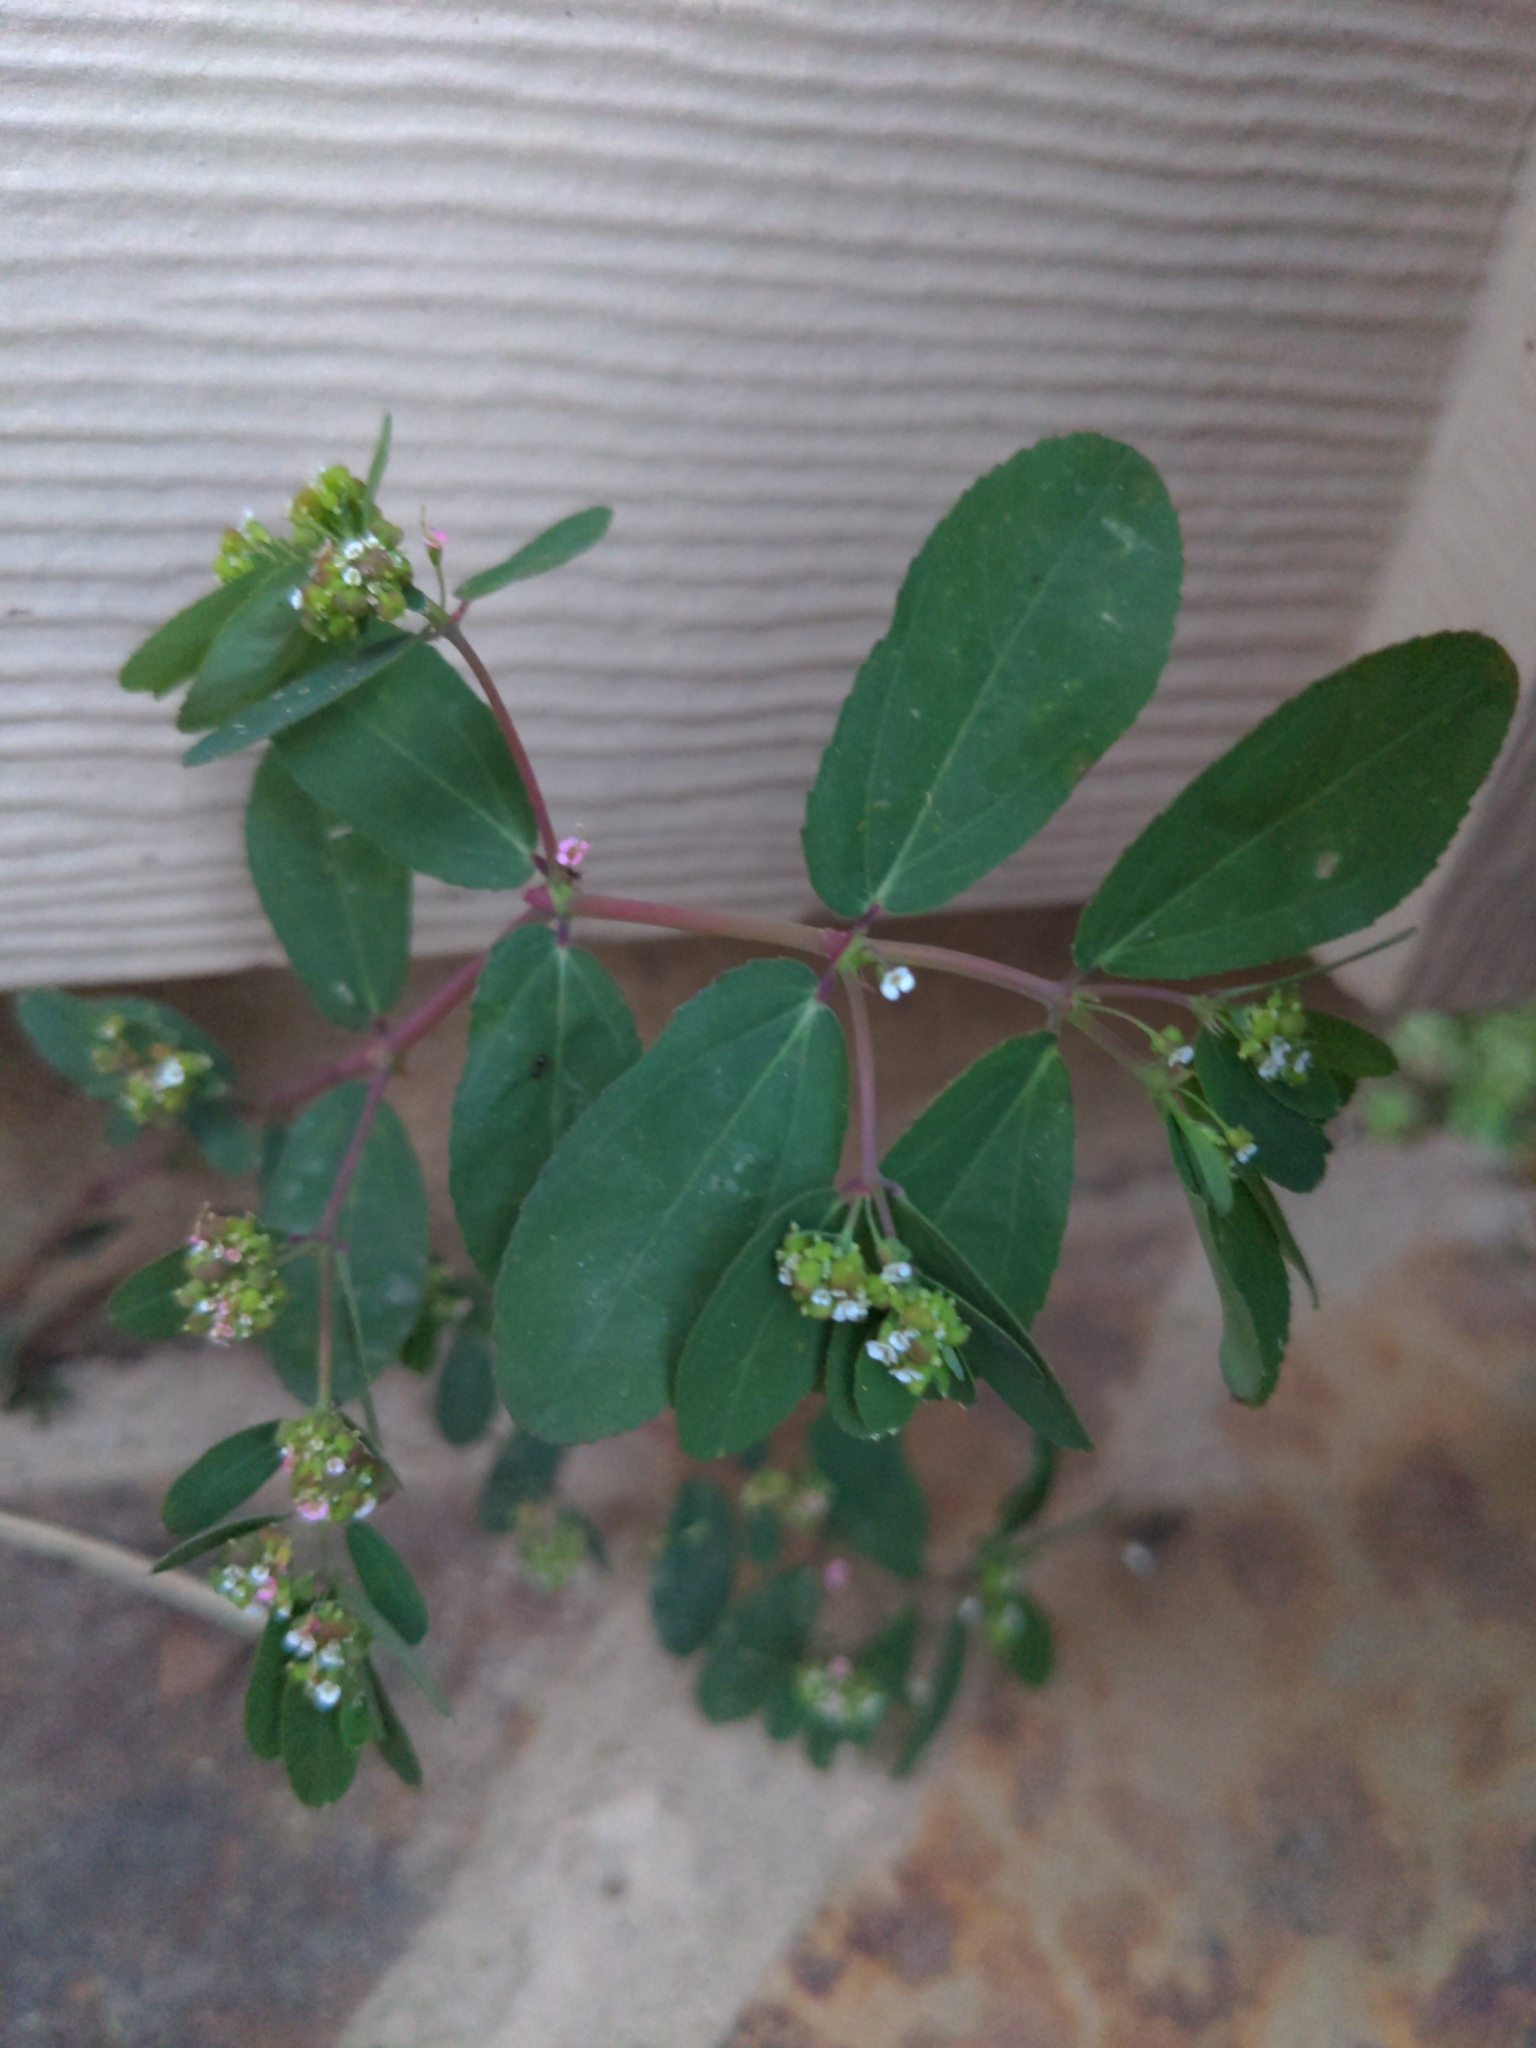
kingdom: Plantae
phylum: Tracheophyta
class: Magnoliopsida
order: Malpighiales
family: Euphorbiaceae
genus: Euphorbia
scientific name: Euphorbia hypericifolia
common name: Graceful sandmat
